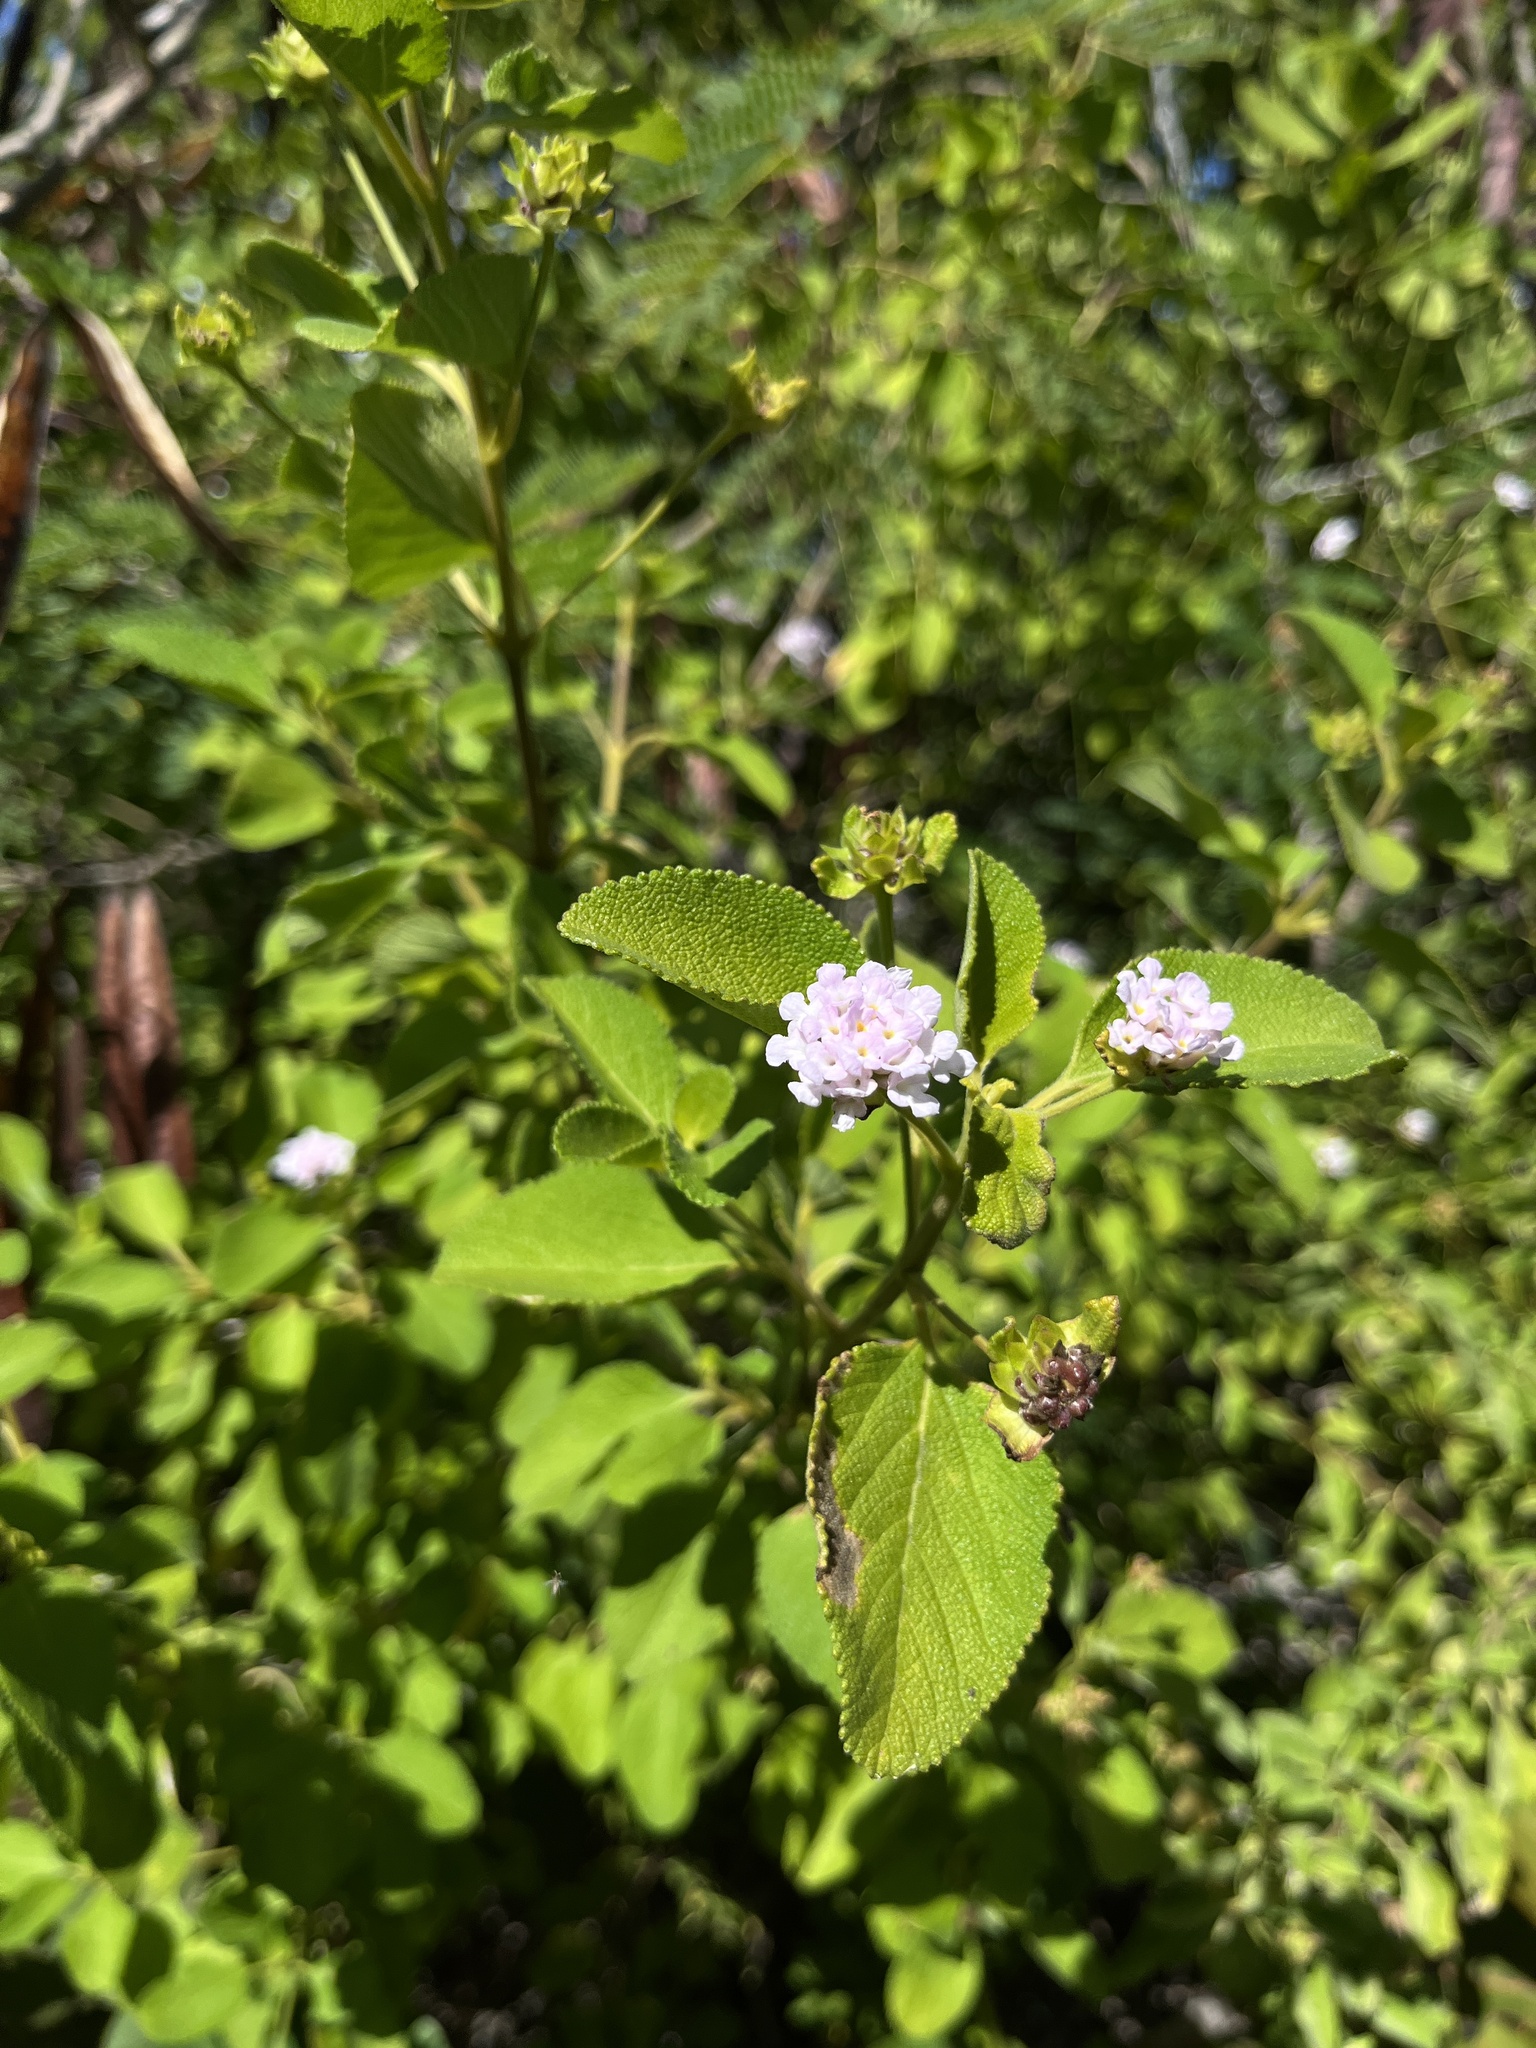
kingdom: Plantae
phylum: Tracheophyta
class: Magnoliopsida
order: Lamiales
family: Verbenaceae
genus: Lantana
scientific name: Lantana involucrata
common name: Black sage
